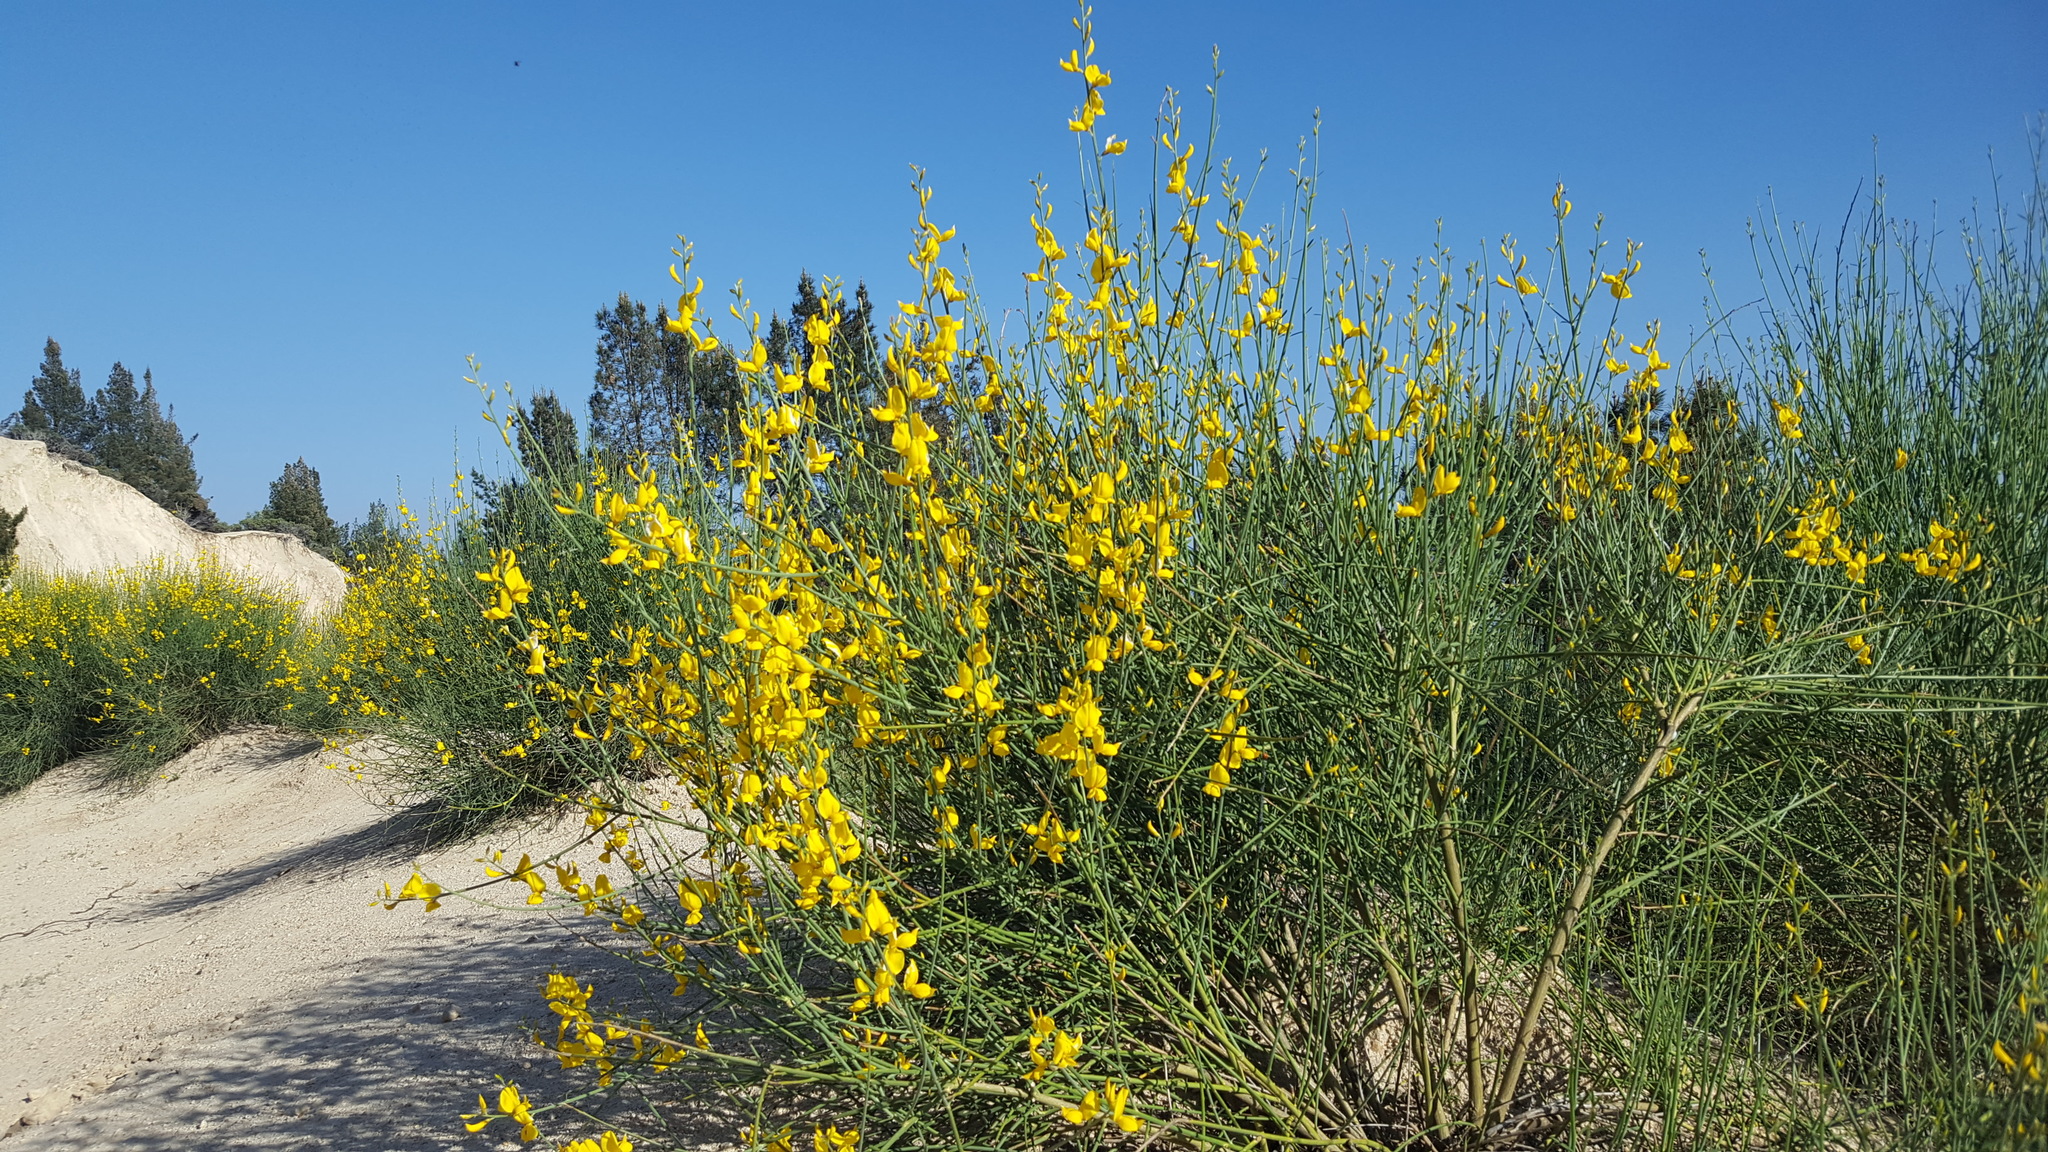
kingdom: Plantae
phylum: Tracheophyta
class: Magnoliopsida
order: Fabales
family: Fabaceae
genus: Spartium
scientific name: Spartium junceum
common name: Spanish broom
